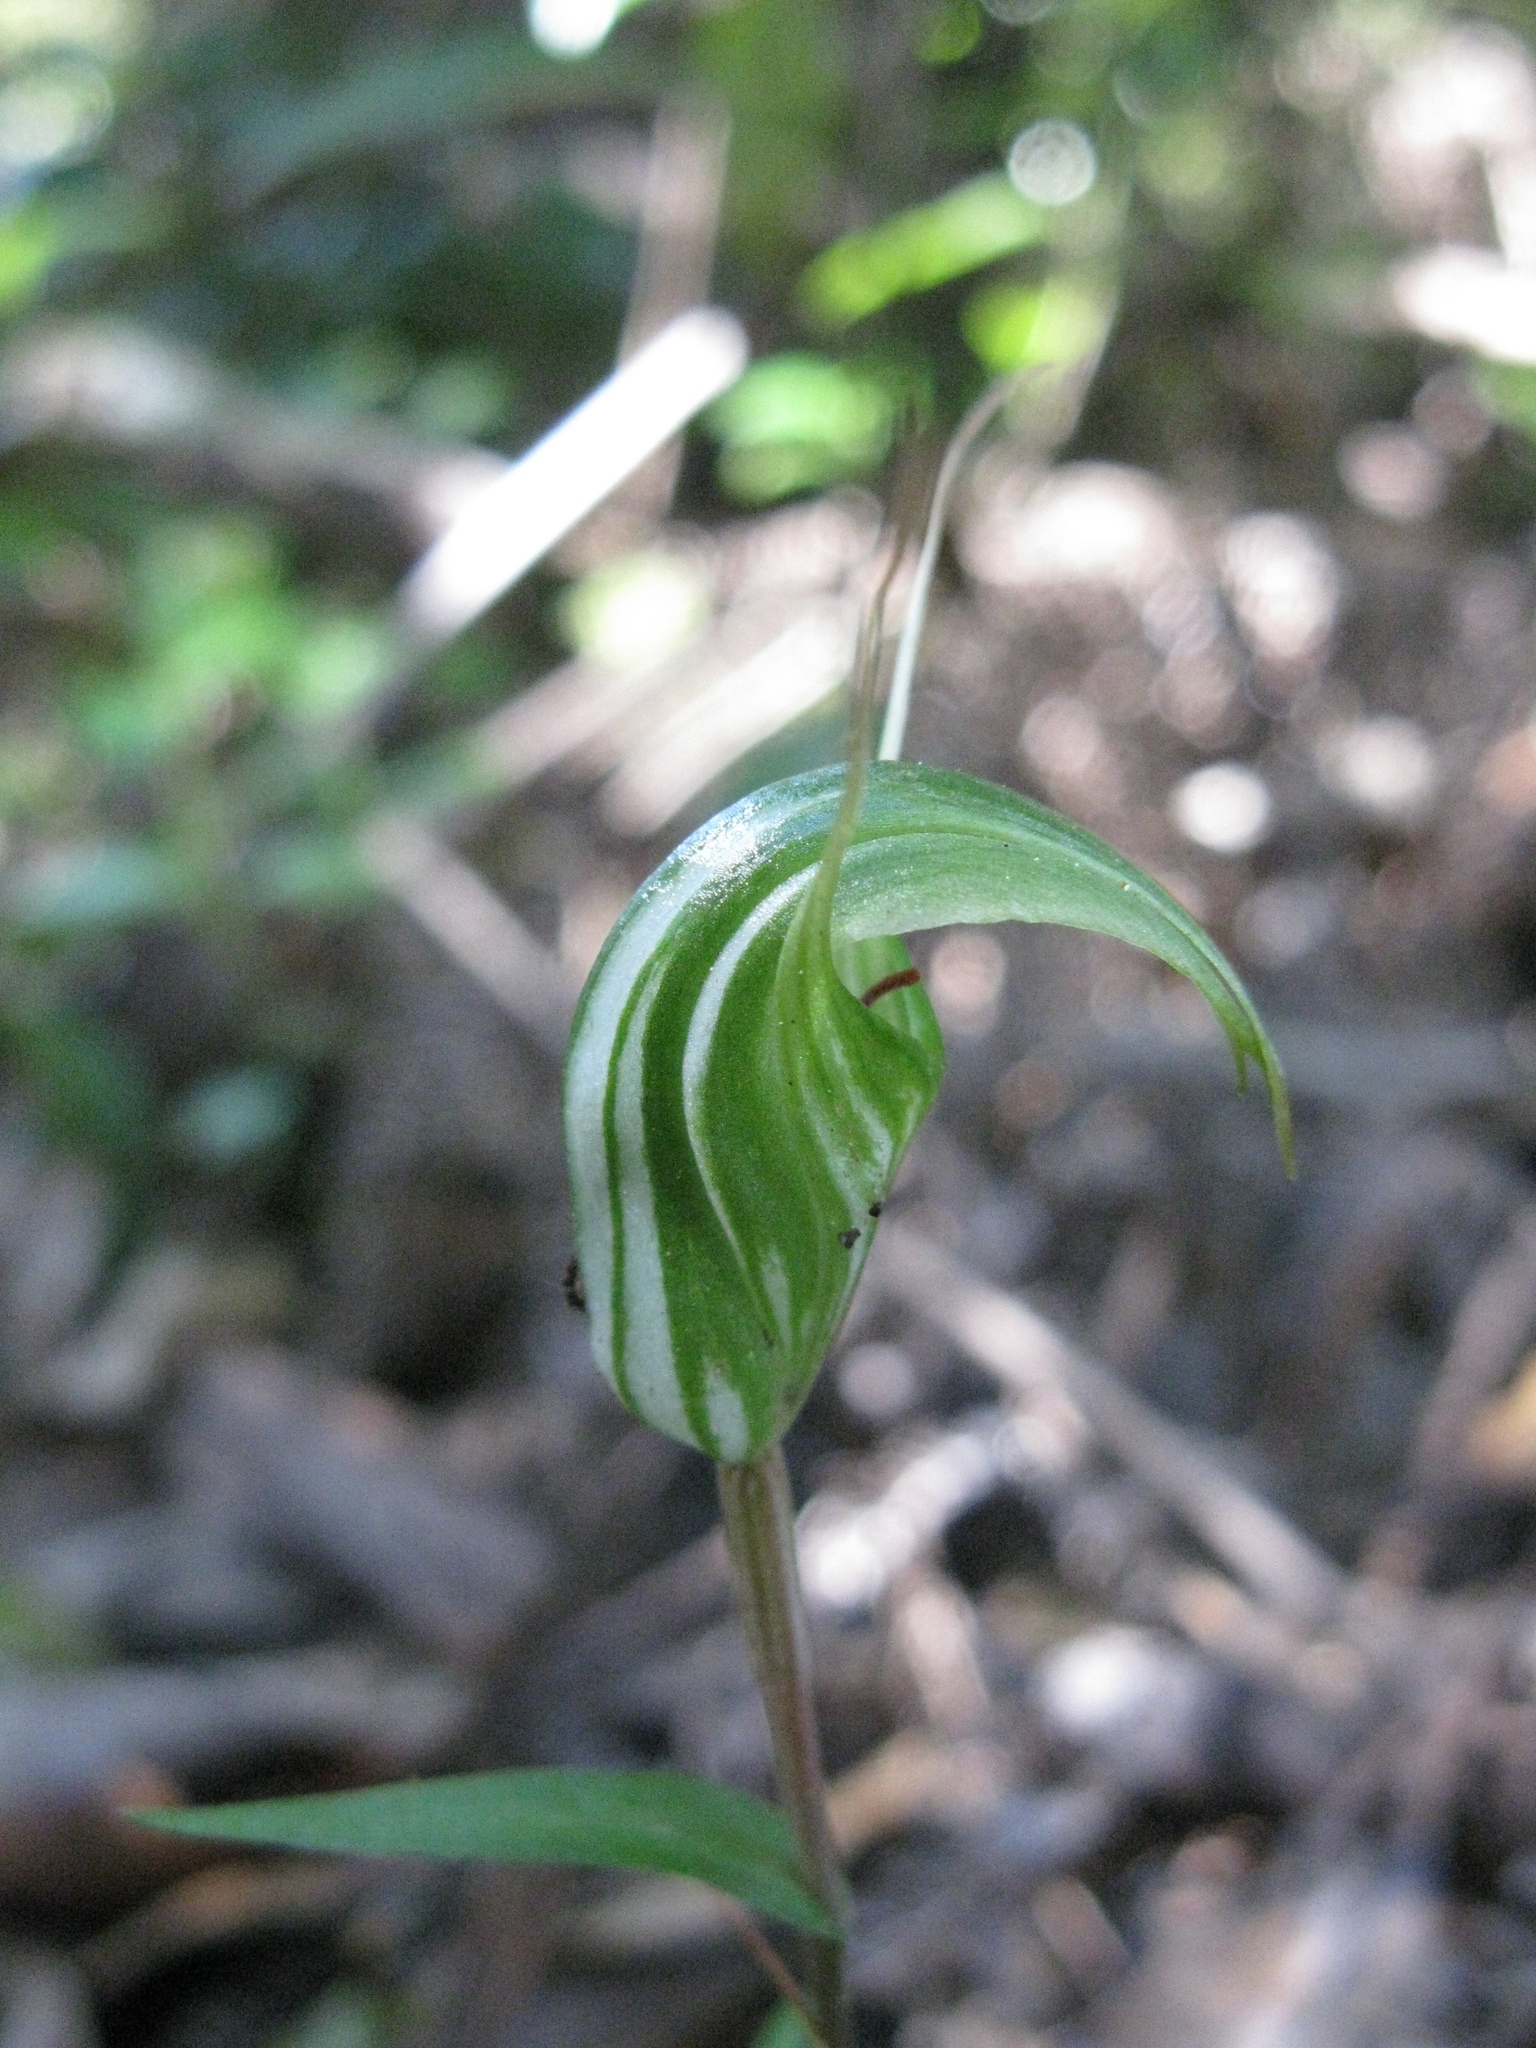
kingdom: Plantae
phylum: Tracheophyta
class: Liliopsida
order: Asparagales
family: Orchidaceae
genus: Pterostylis
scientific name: Pterostylis alobula
